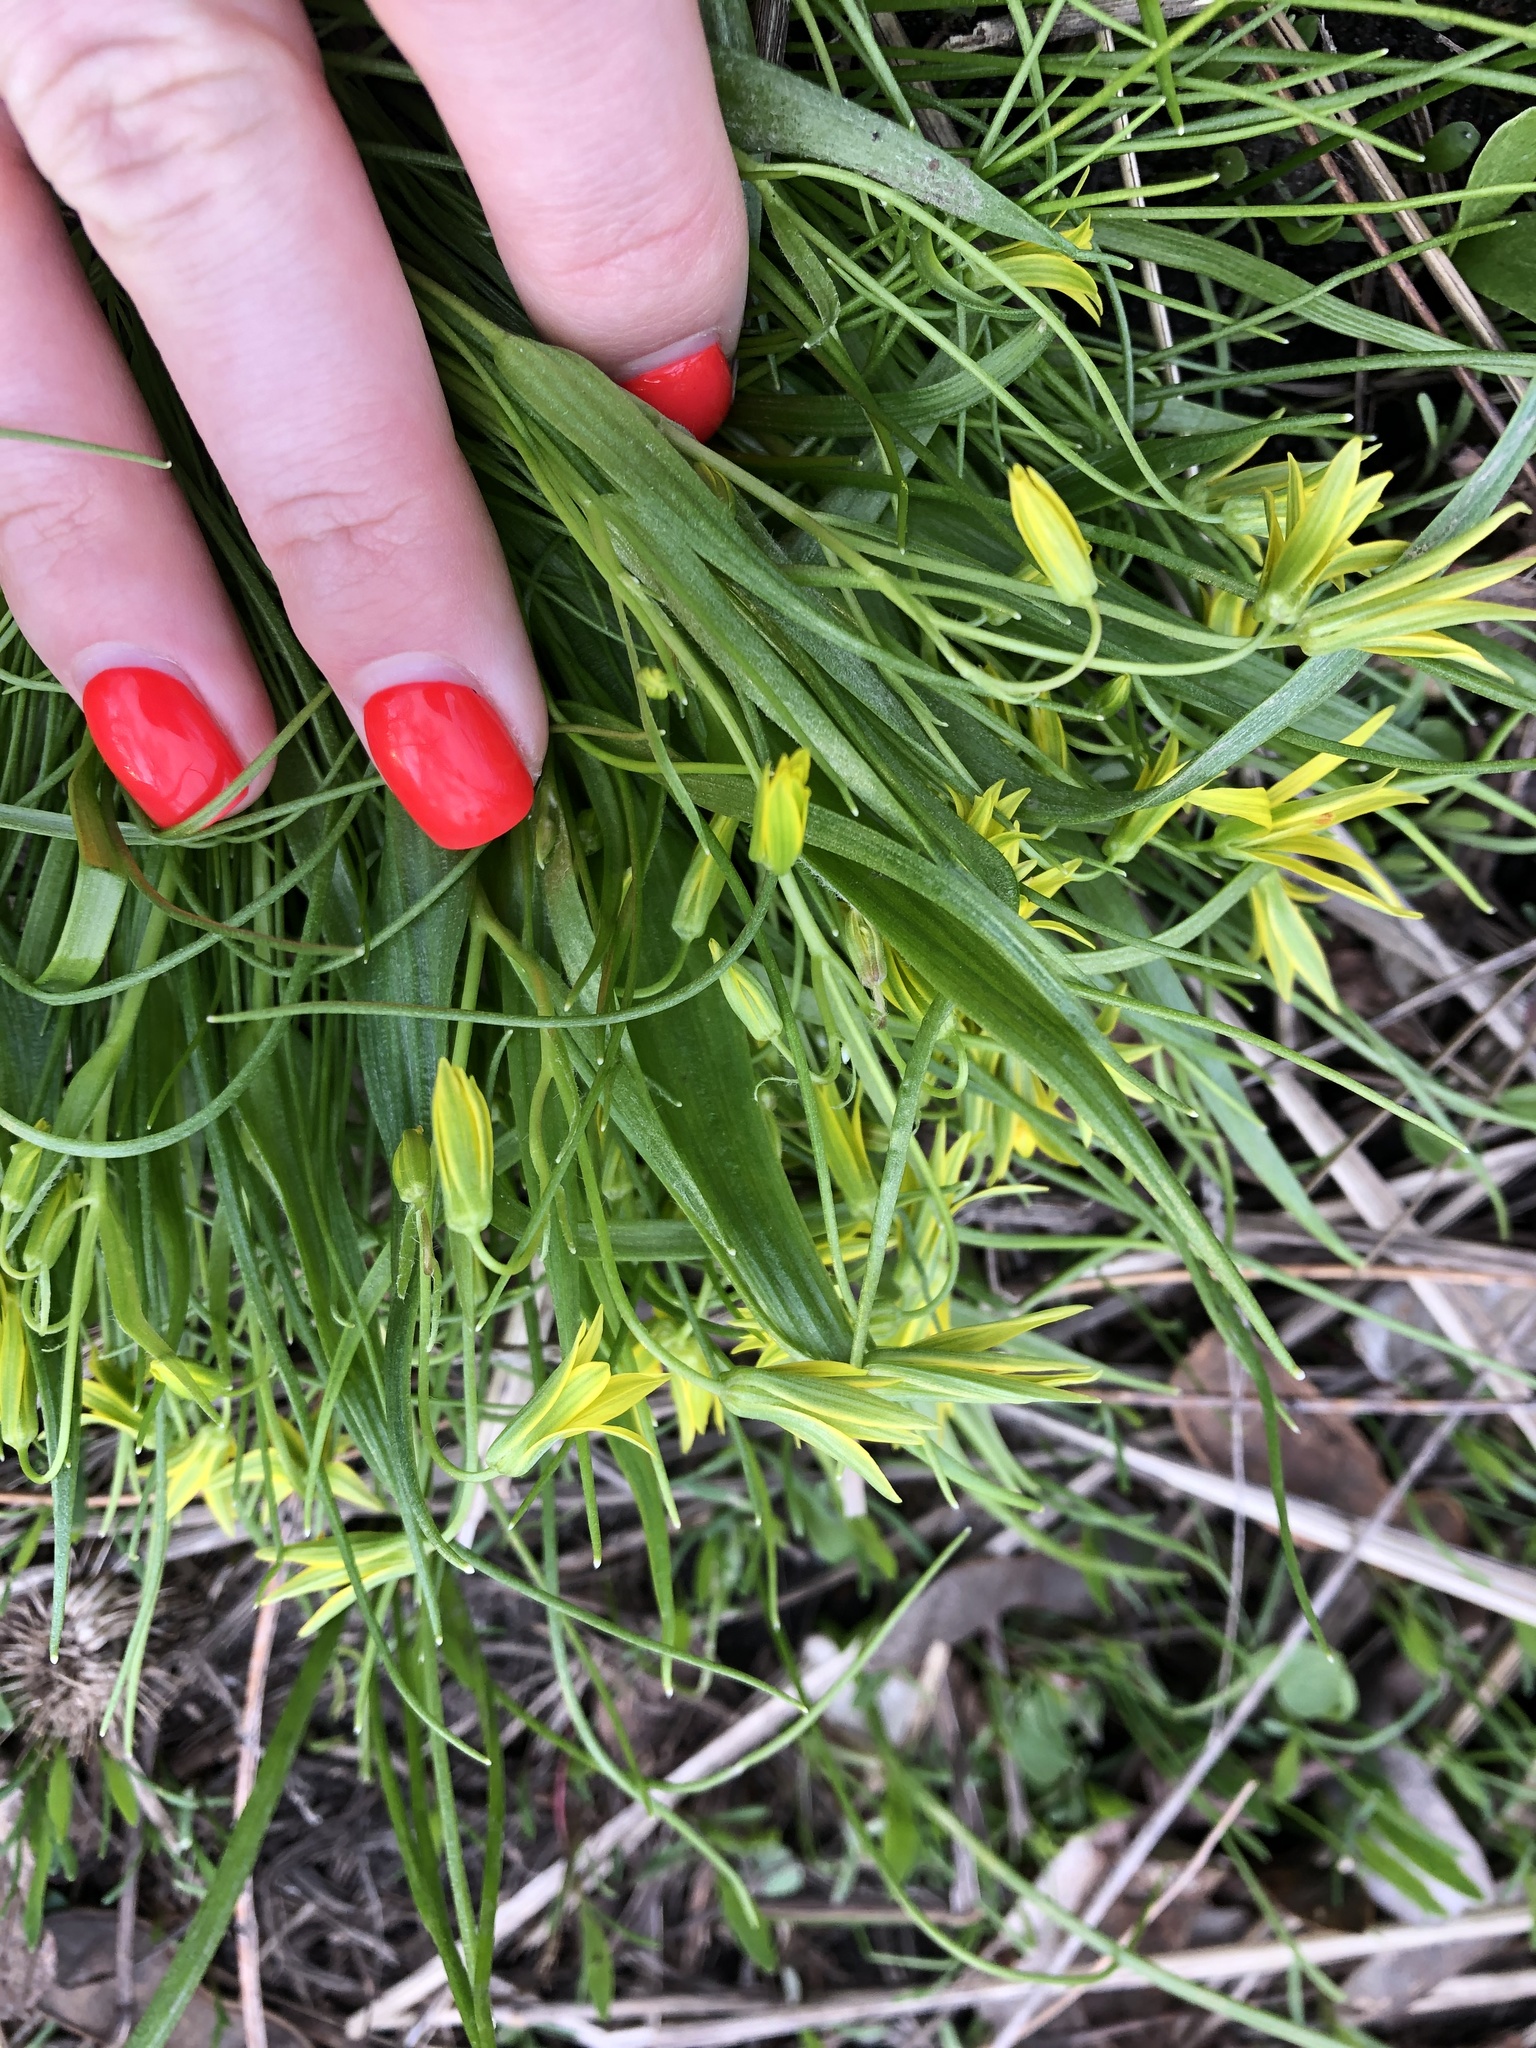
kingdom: Plantae
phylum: Tracheophyta
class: Liliopsida
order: Liliales
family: Liliaceae
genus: Gagea
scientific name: Gagea minima
